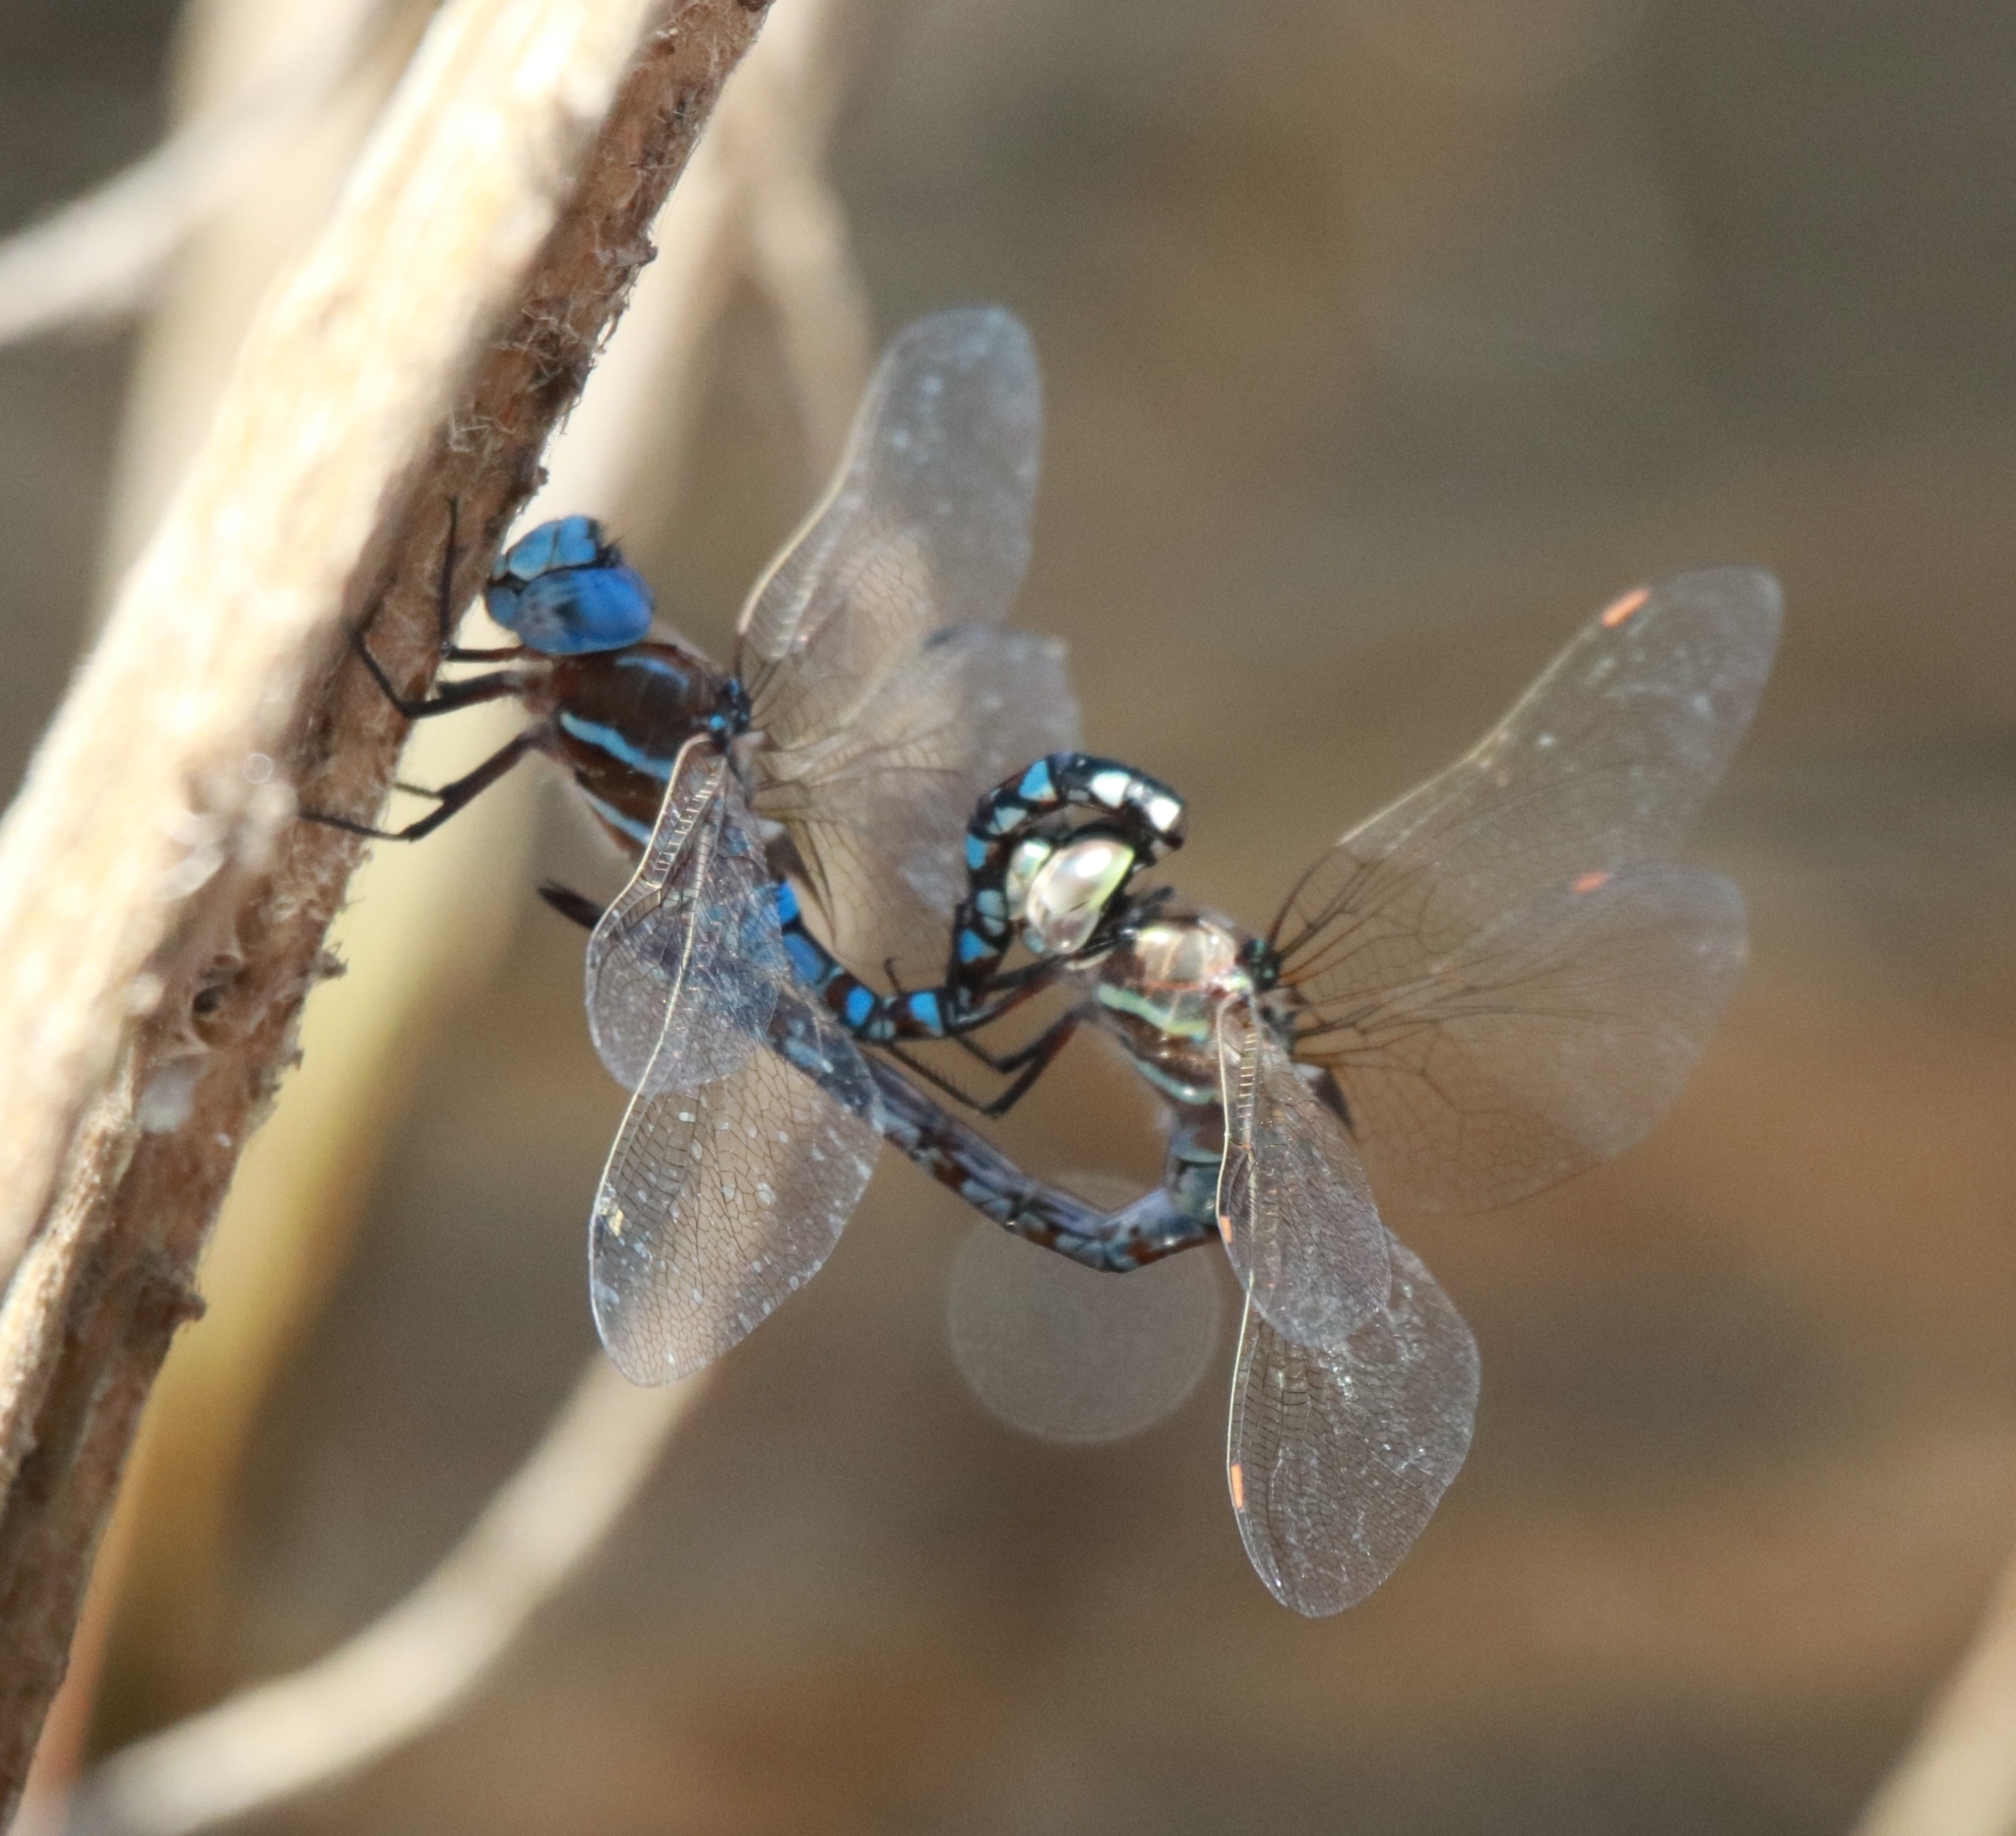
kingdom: Animalia
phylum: Arthropoda
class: Insecta
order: Odonata
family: Aeshnidae
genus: Rhionaeschna
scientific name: Rhionaeschna multicolor
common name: Blue-eyed darner
